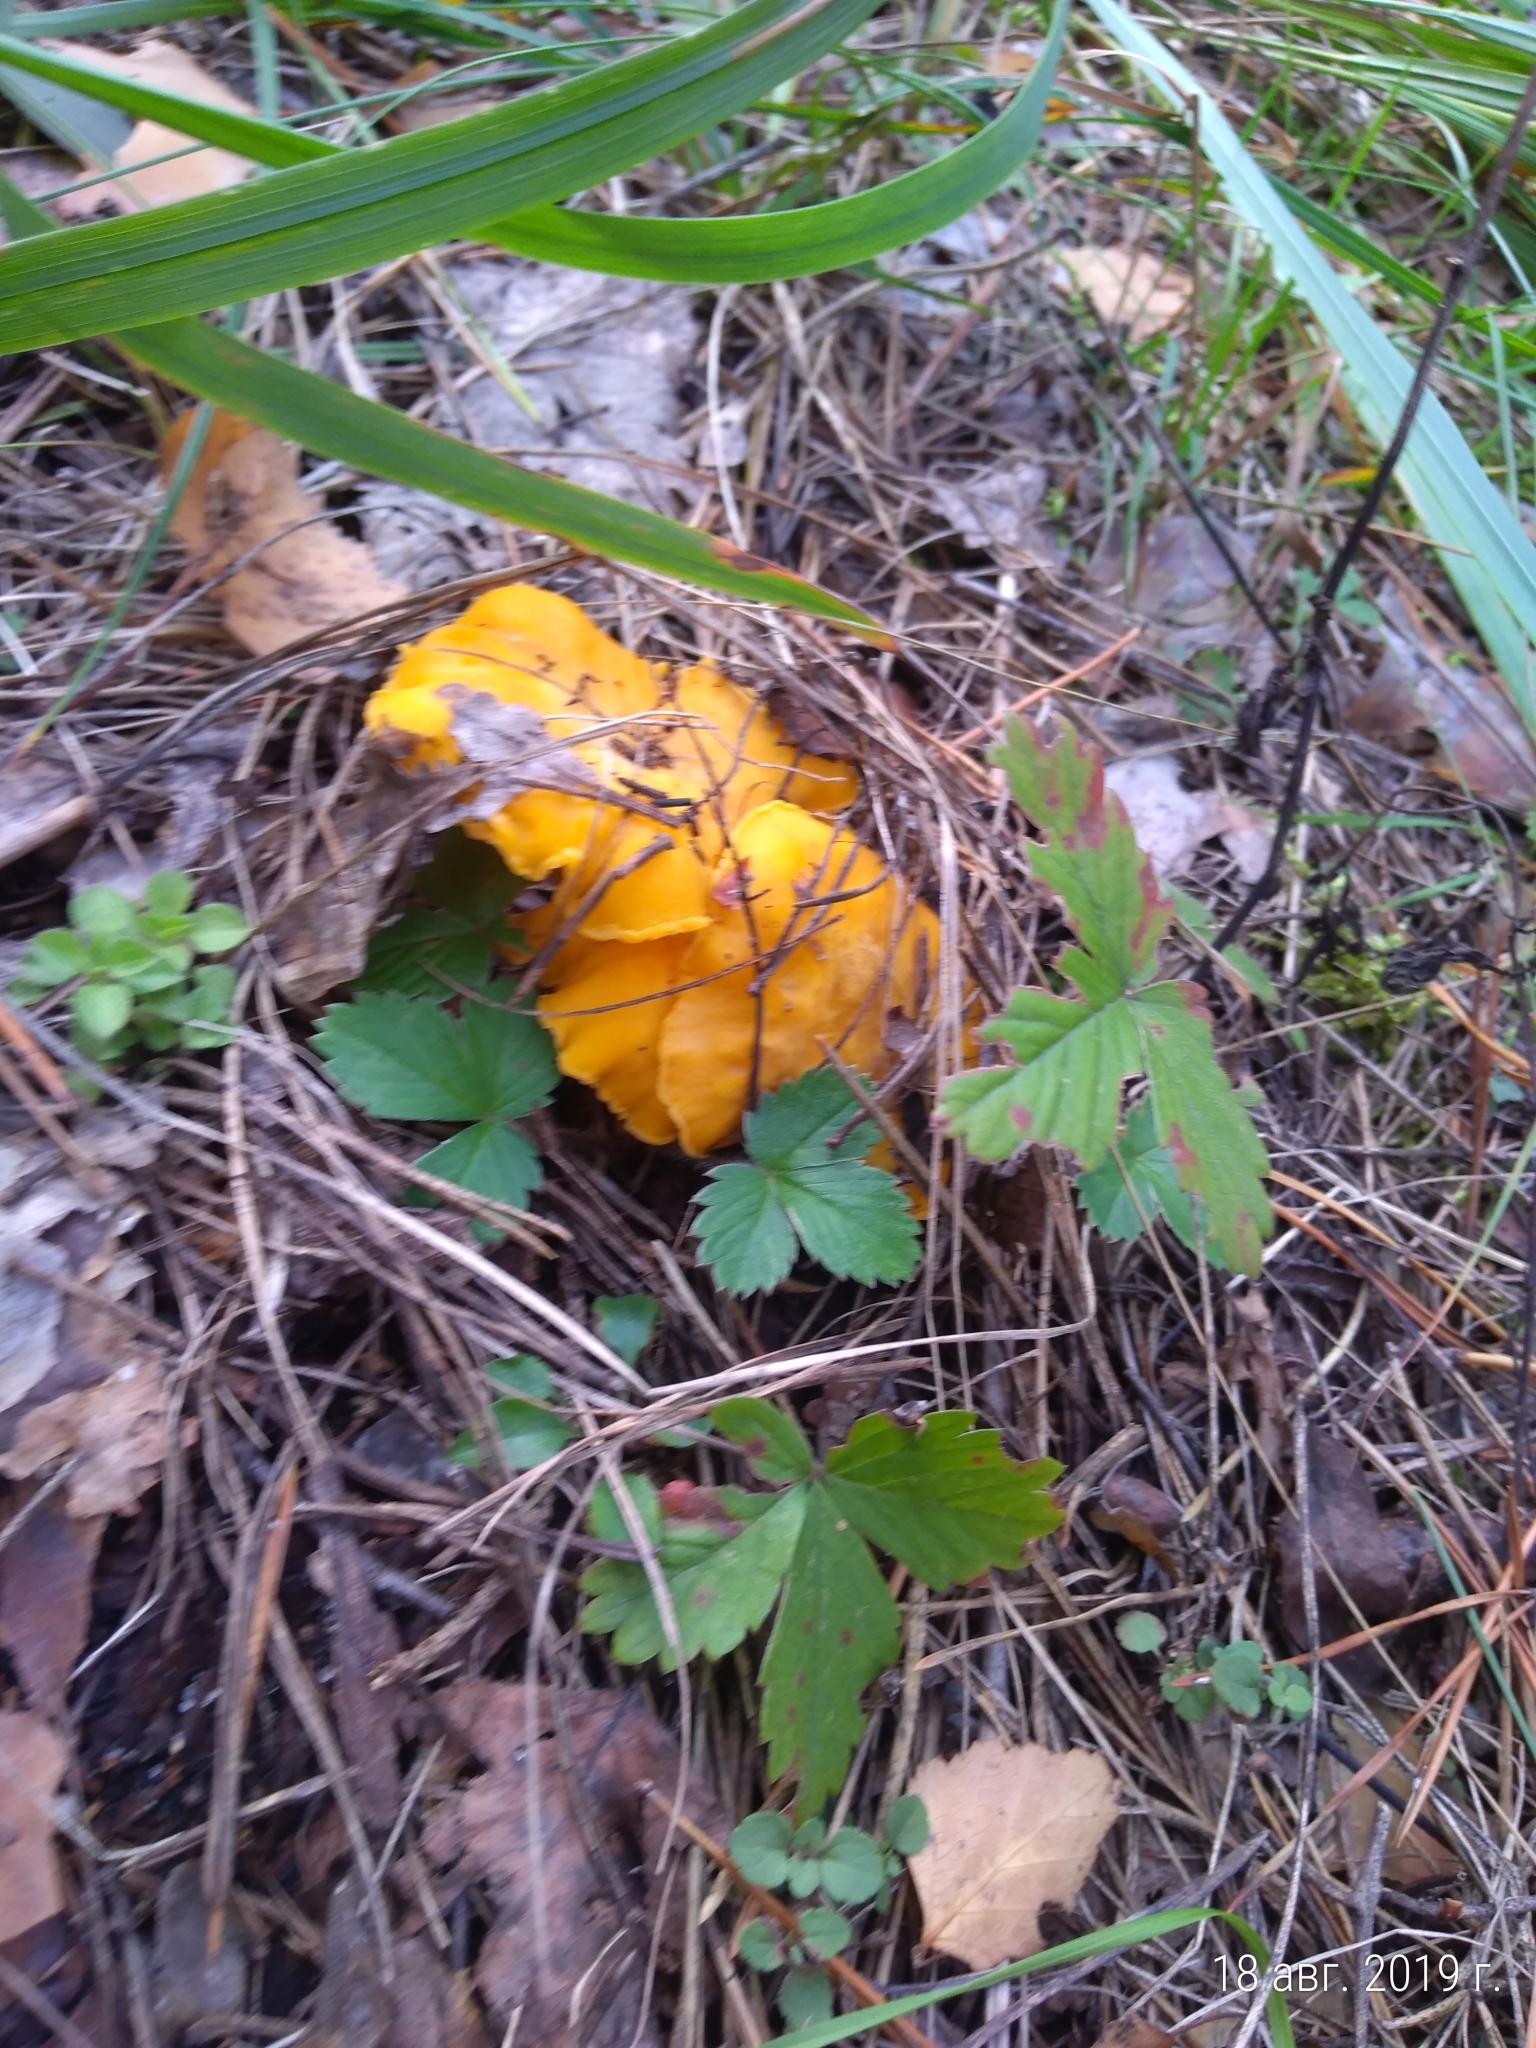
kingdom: Fungi
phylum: Basidiomycota
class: Agaricomycetes
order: Cantharellales
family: Hydnaceae
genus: Cantharellus
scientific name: Cantharellus cibarius
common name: Chanterelle
